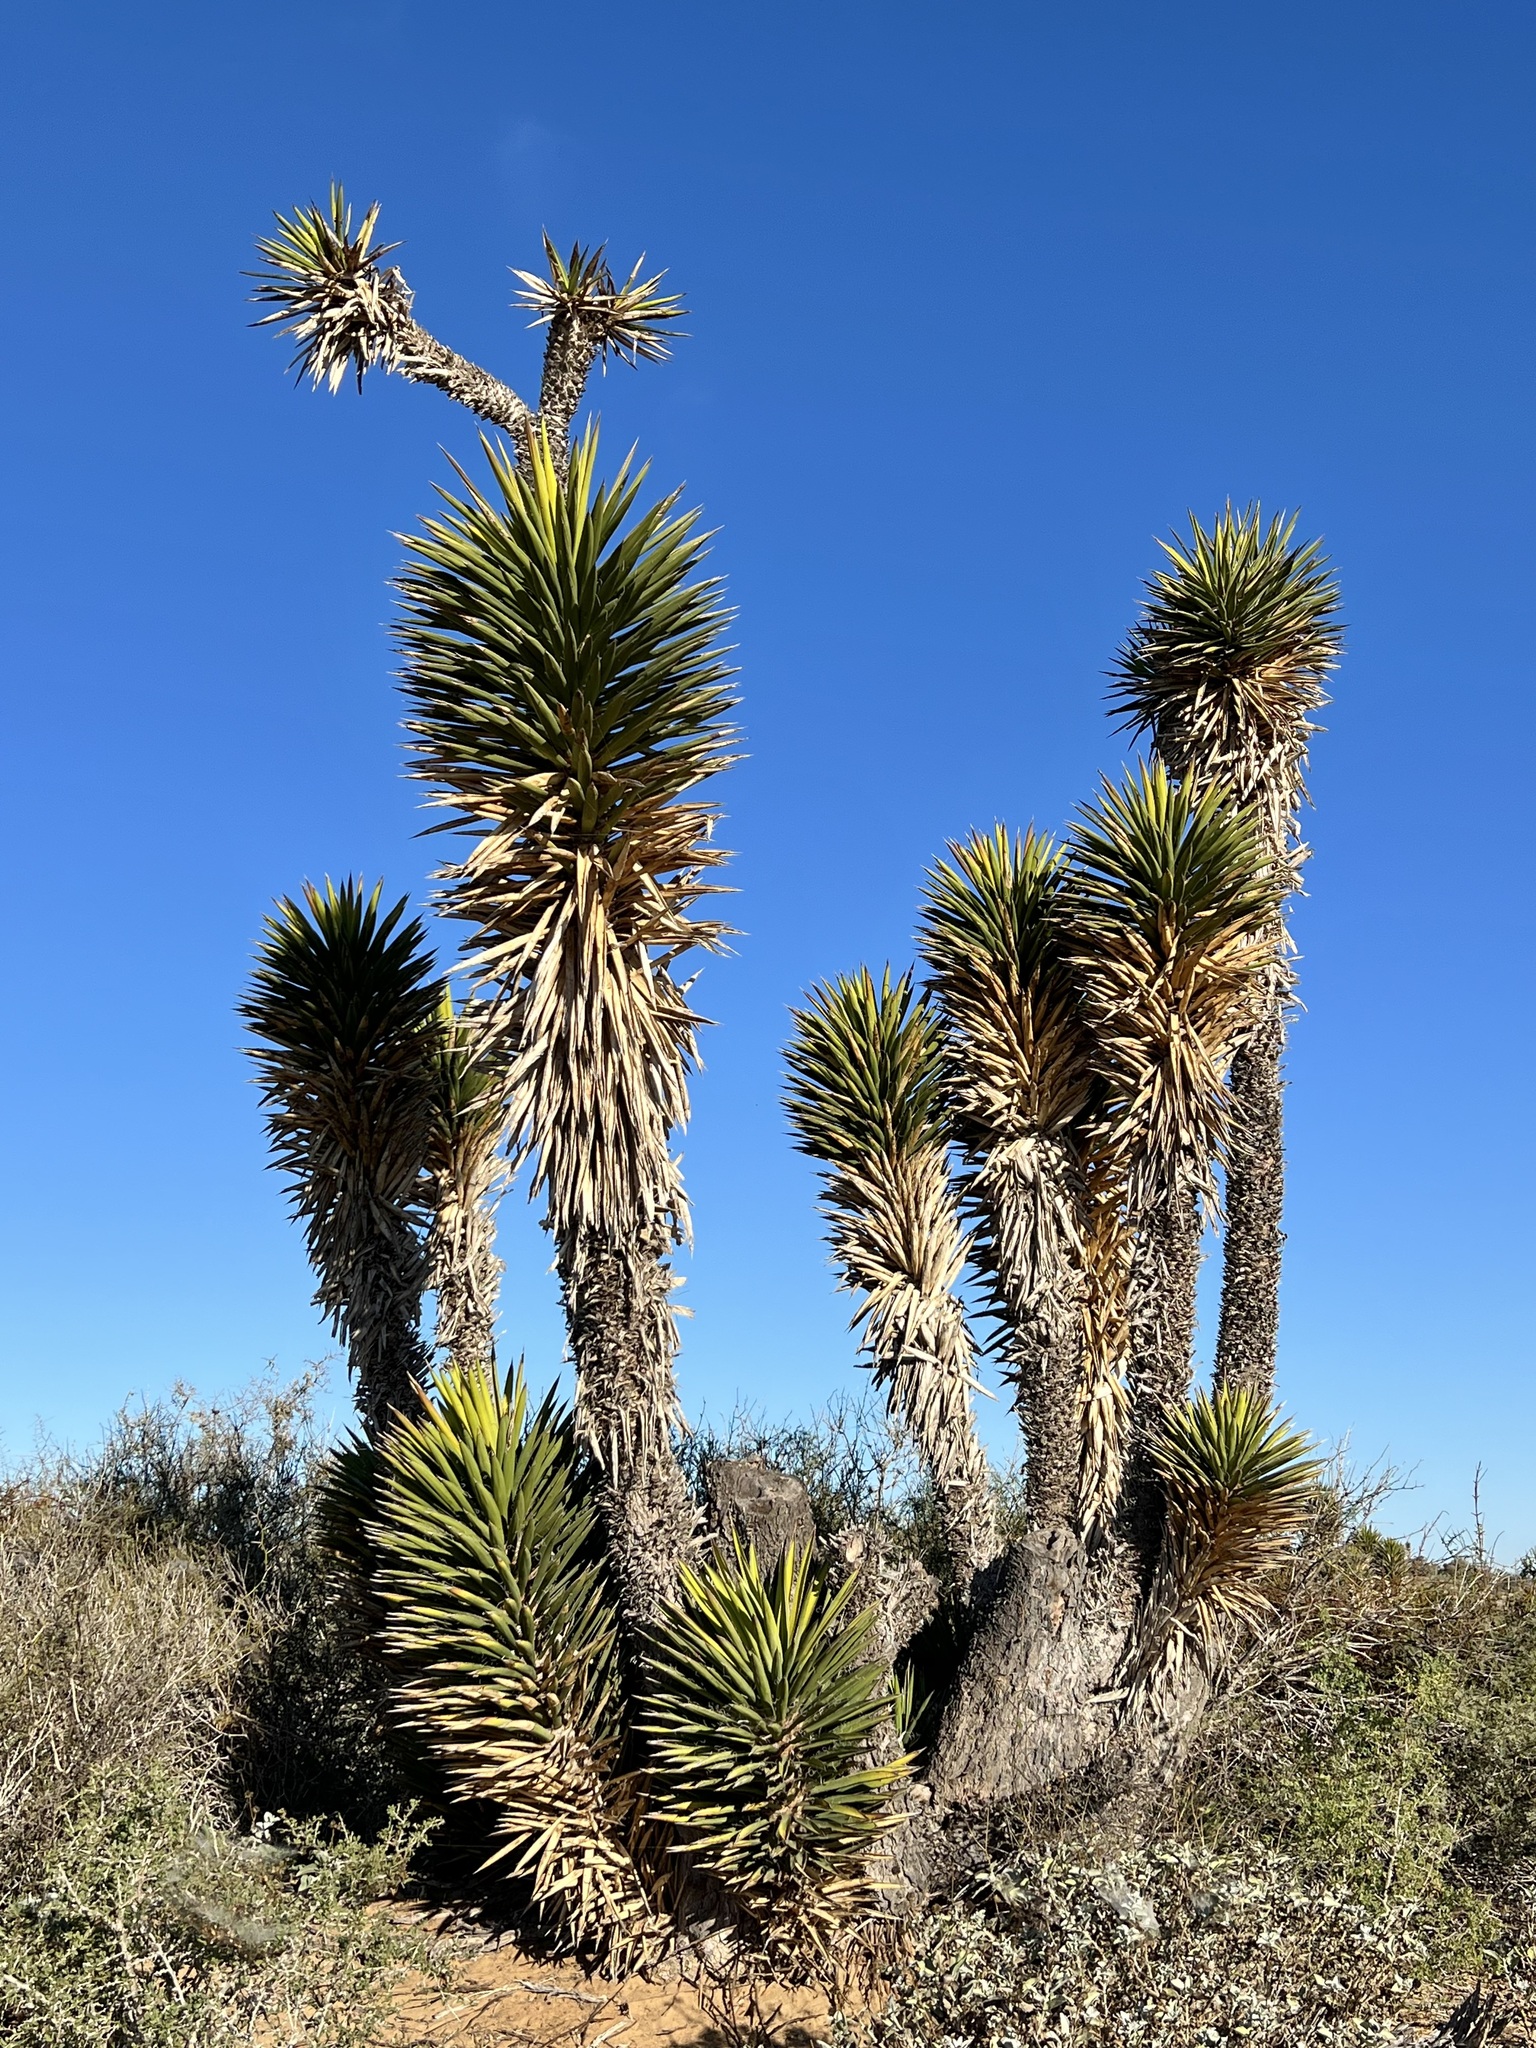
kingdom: Plantae
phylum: Tracheophyta
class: Liliopsida
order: Asparagales
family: Asparagaceae
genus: Yucca
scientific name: Yucca valida
